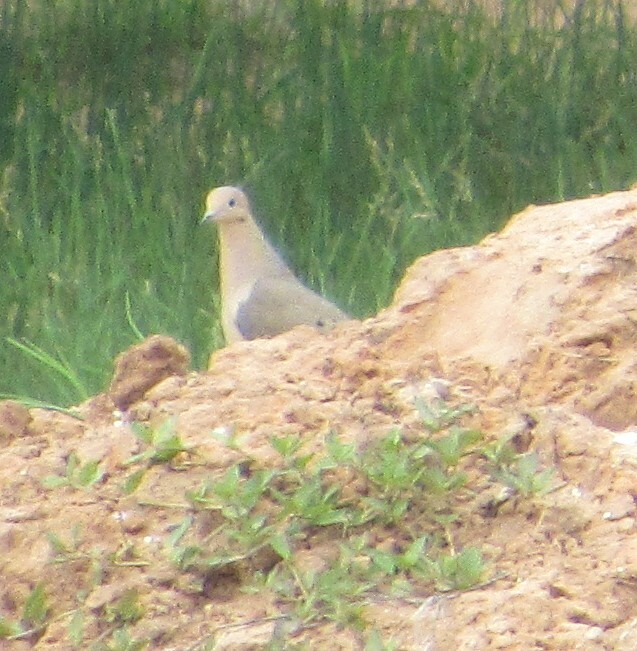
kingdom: Animalia
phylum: Chordata
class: Aves
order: Columbiformes
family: Columbidae
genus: Zenaida
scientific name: Zenaida macroura
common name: Mourning dove
